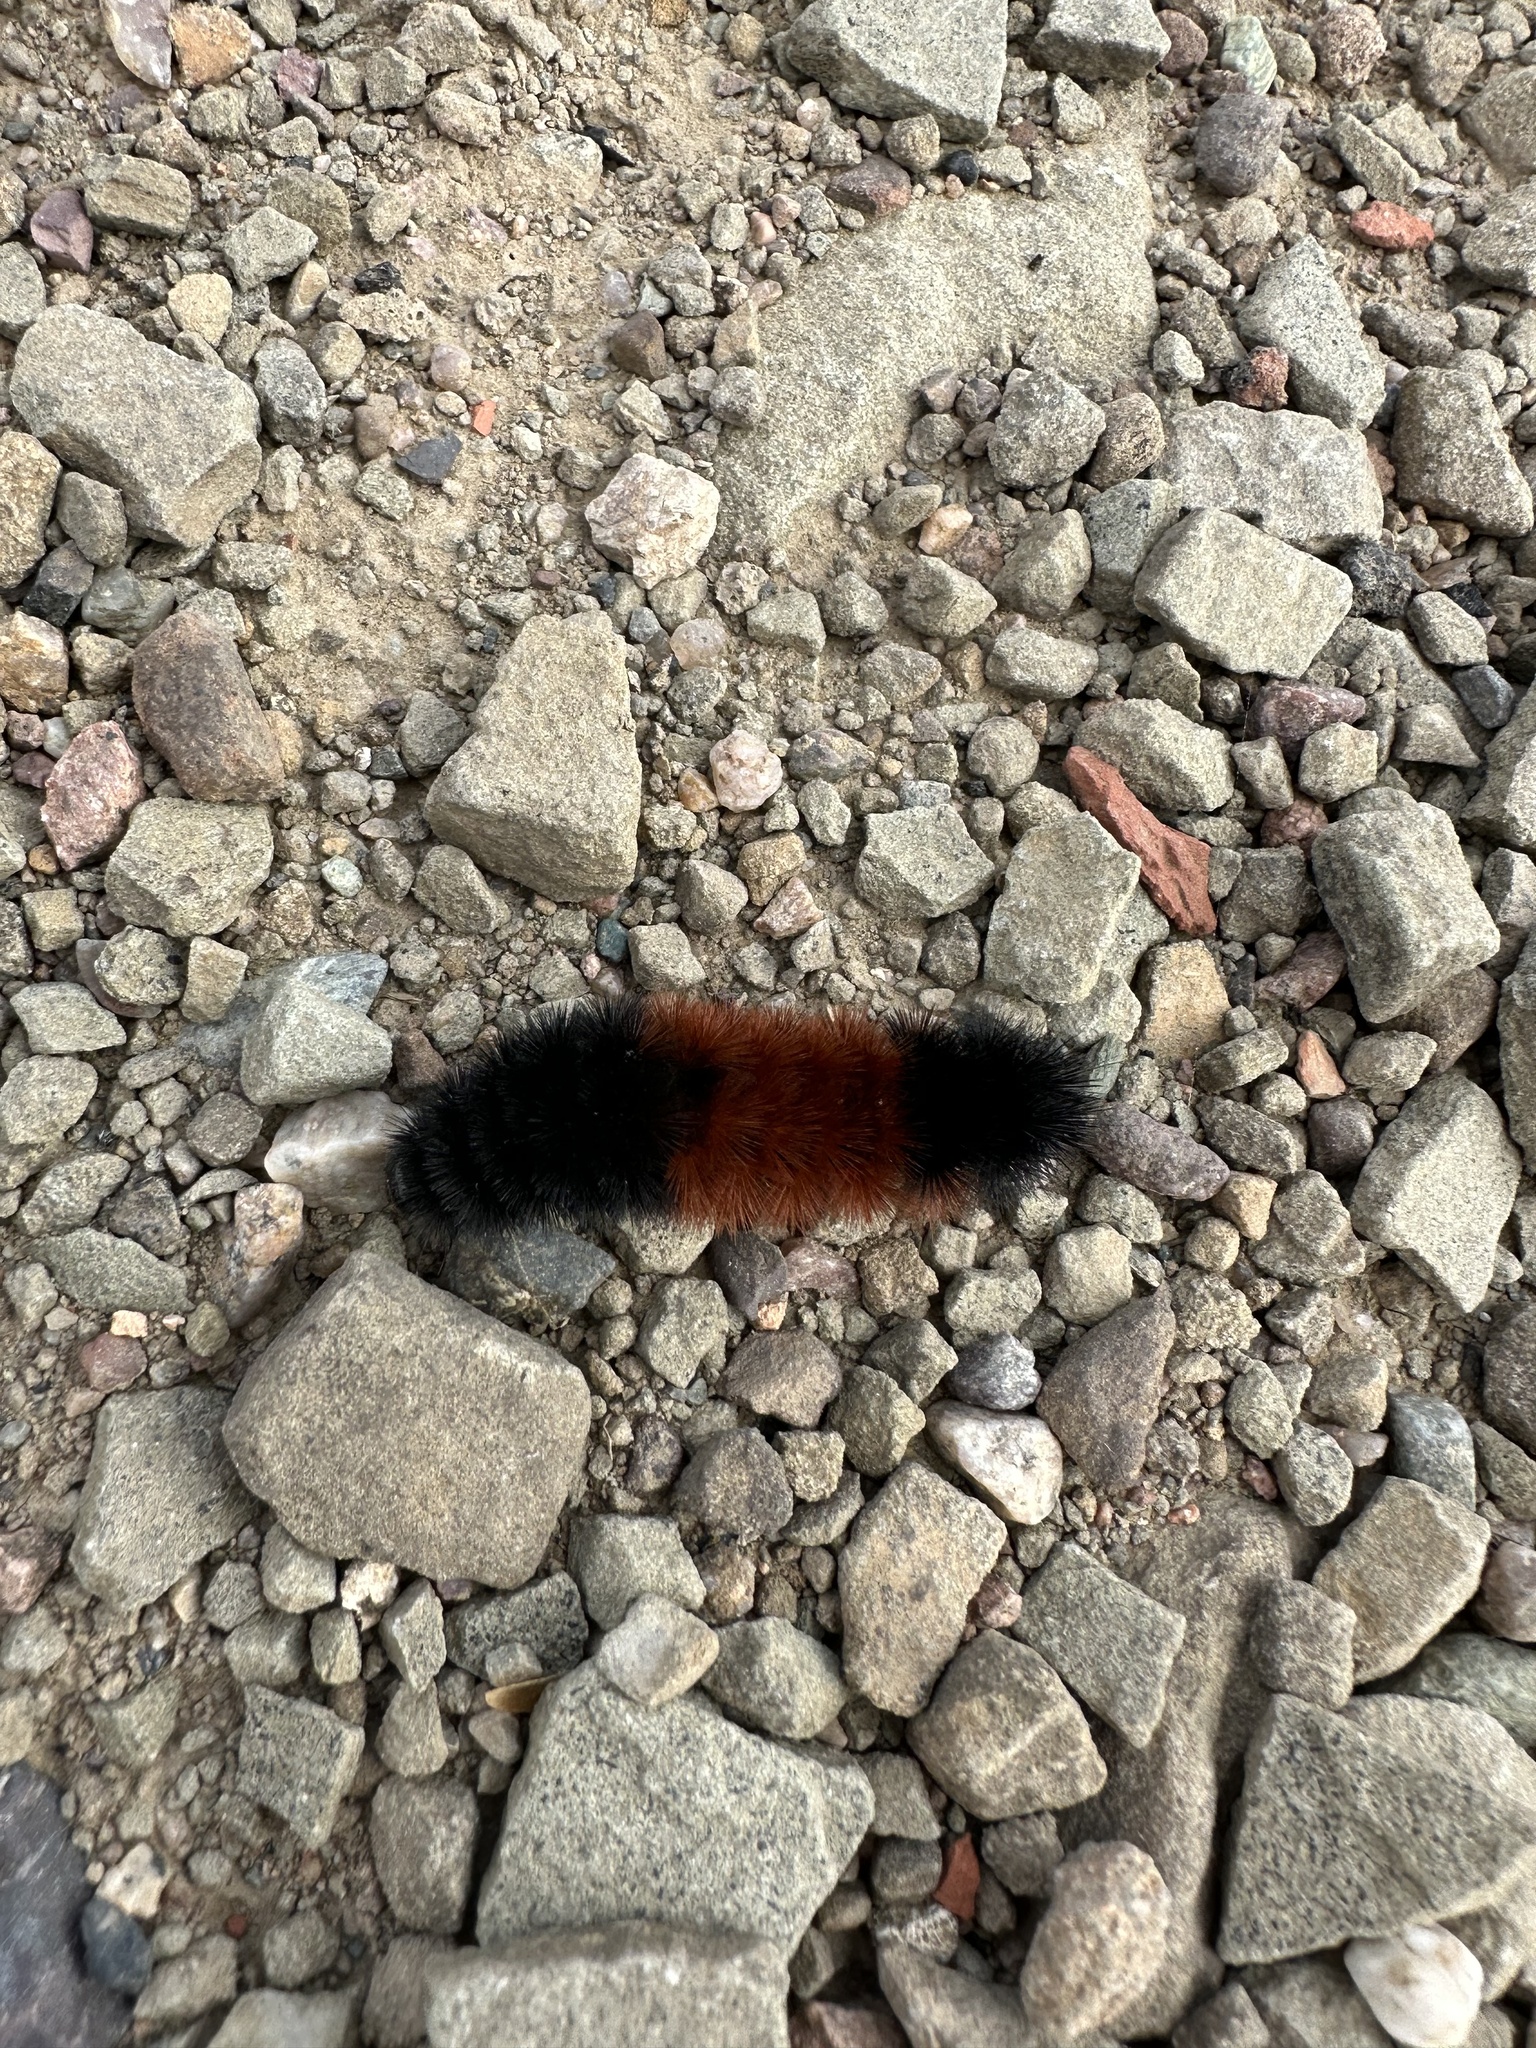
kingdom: Animalia
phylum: Arthropoda
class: Insecta
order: Lepidoptera
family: Erebidae
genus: Pyrrharctia
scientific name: Pyrrharctia isabella
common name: Isabella tiger moth
